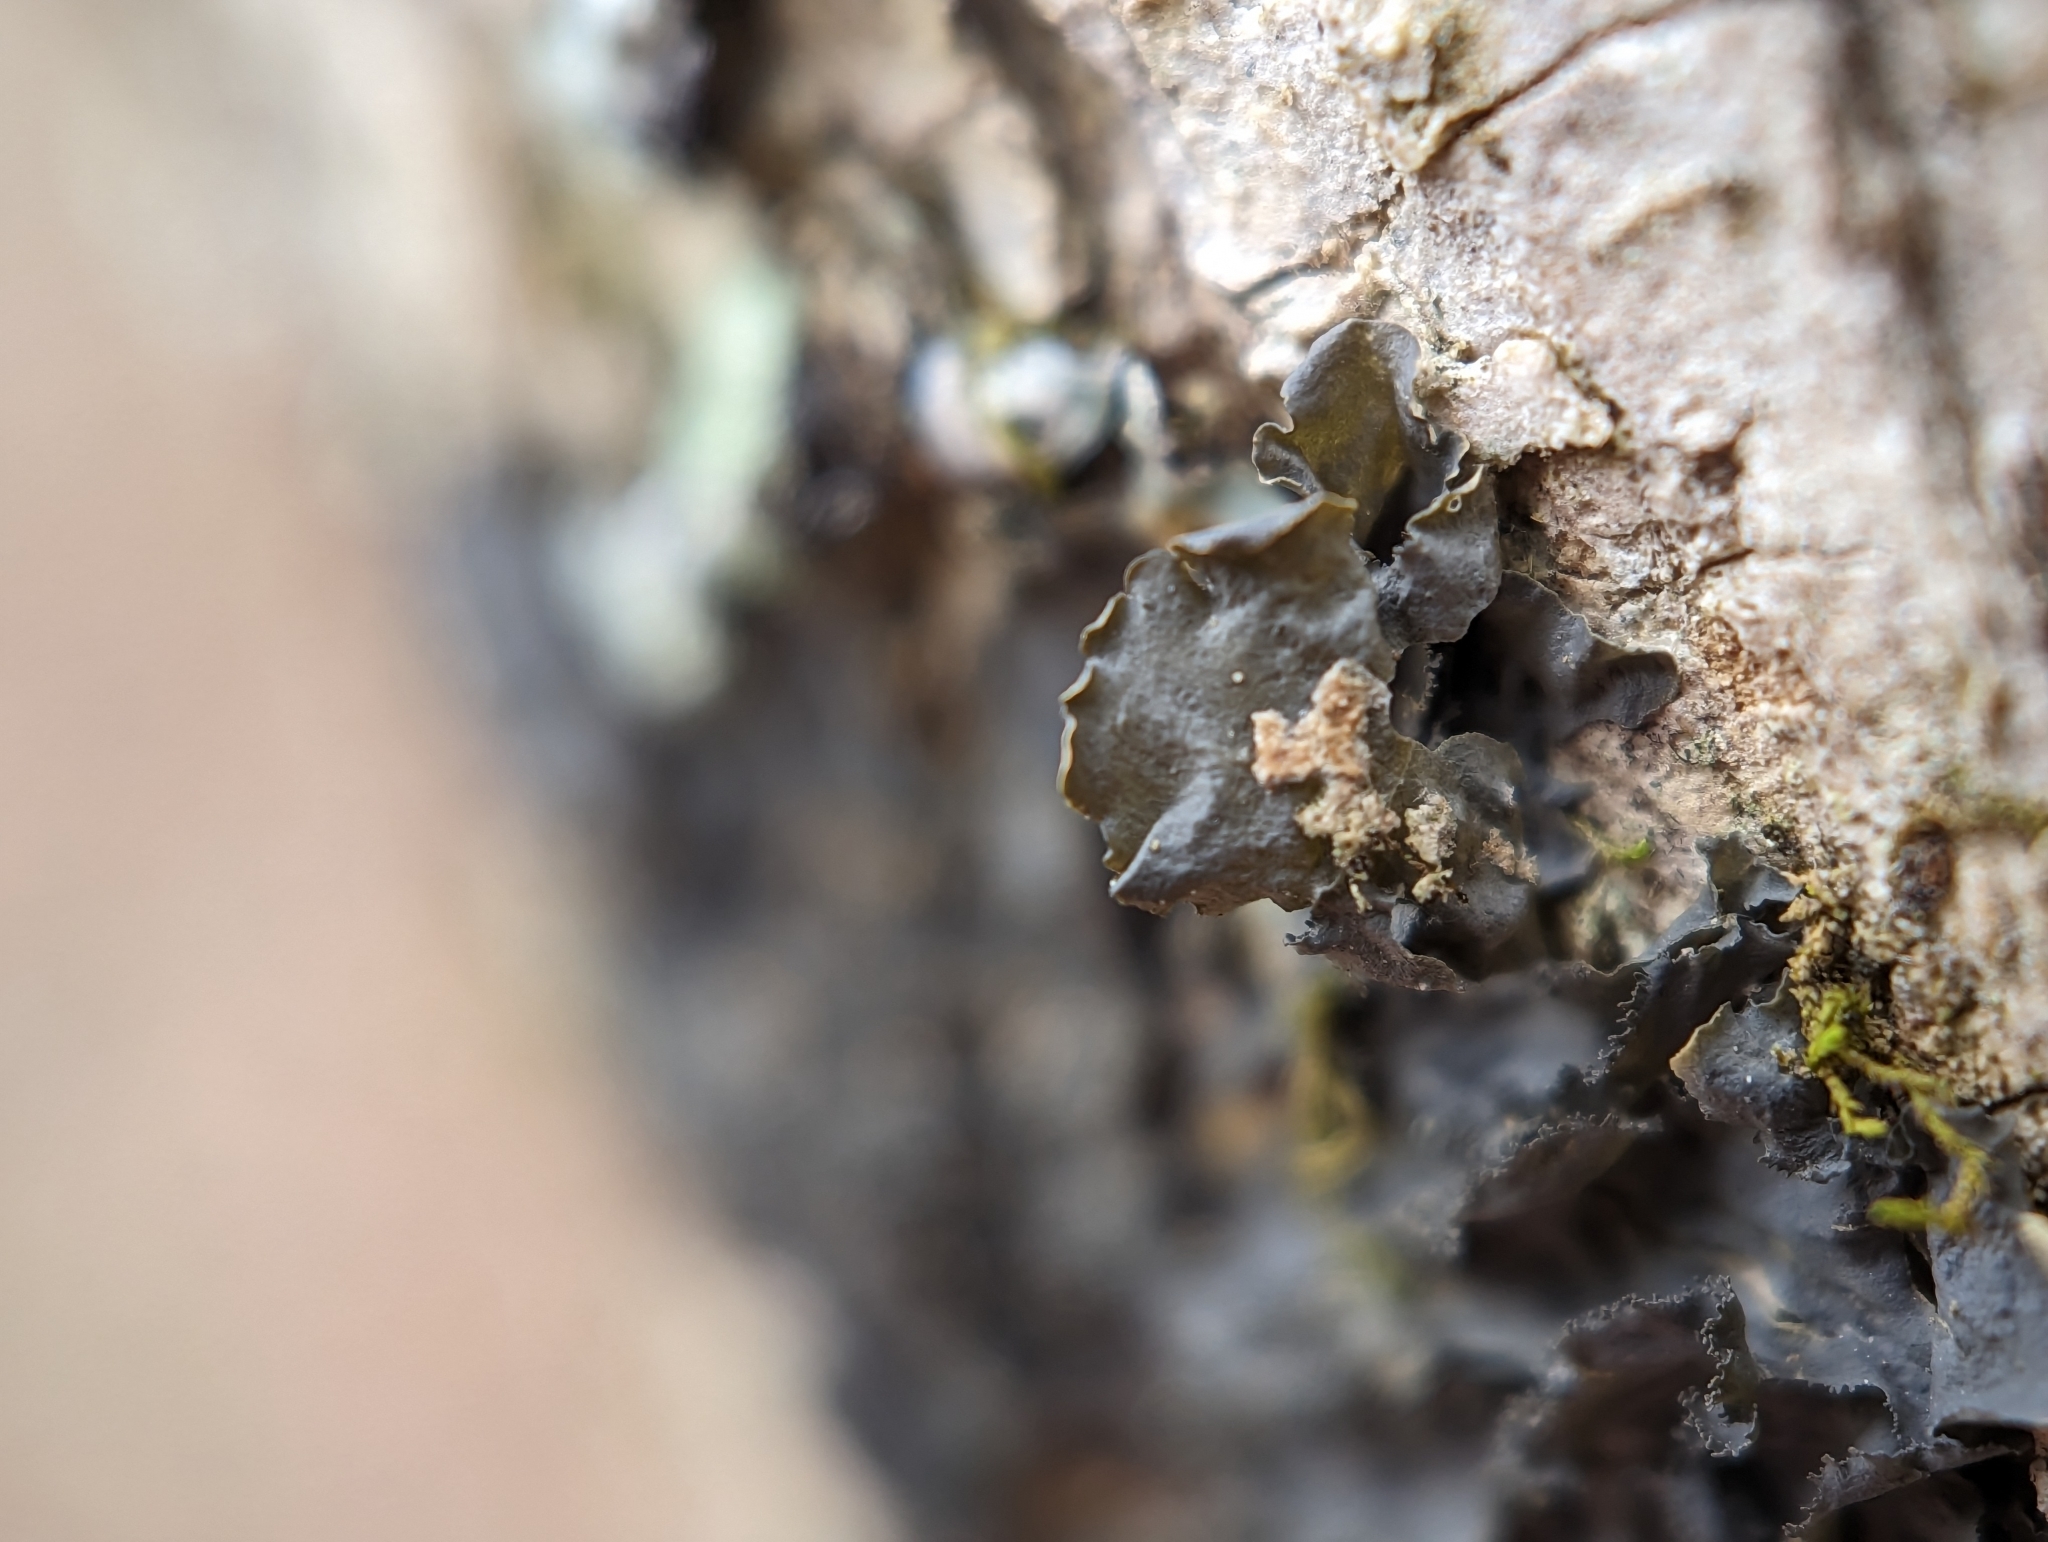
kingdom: Fungi
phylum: Ascomycota
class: Lecanoromycetes
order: Peltigerales
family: Collemataceae
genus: Leptogium
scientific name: Leptogium cyanescens
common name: Blue jellyskin
